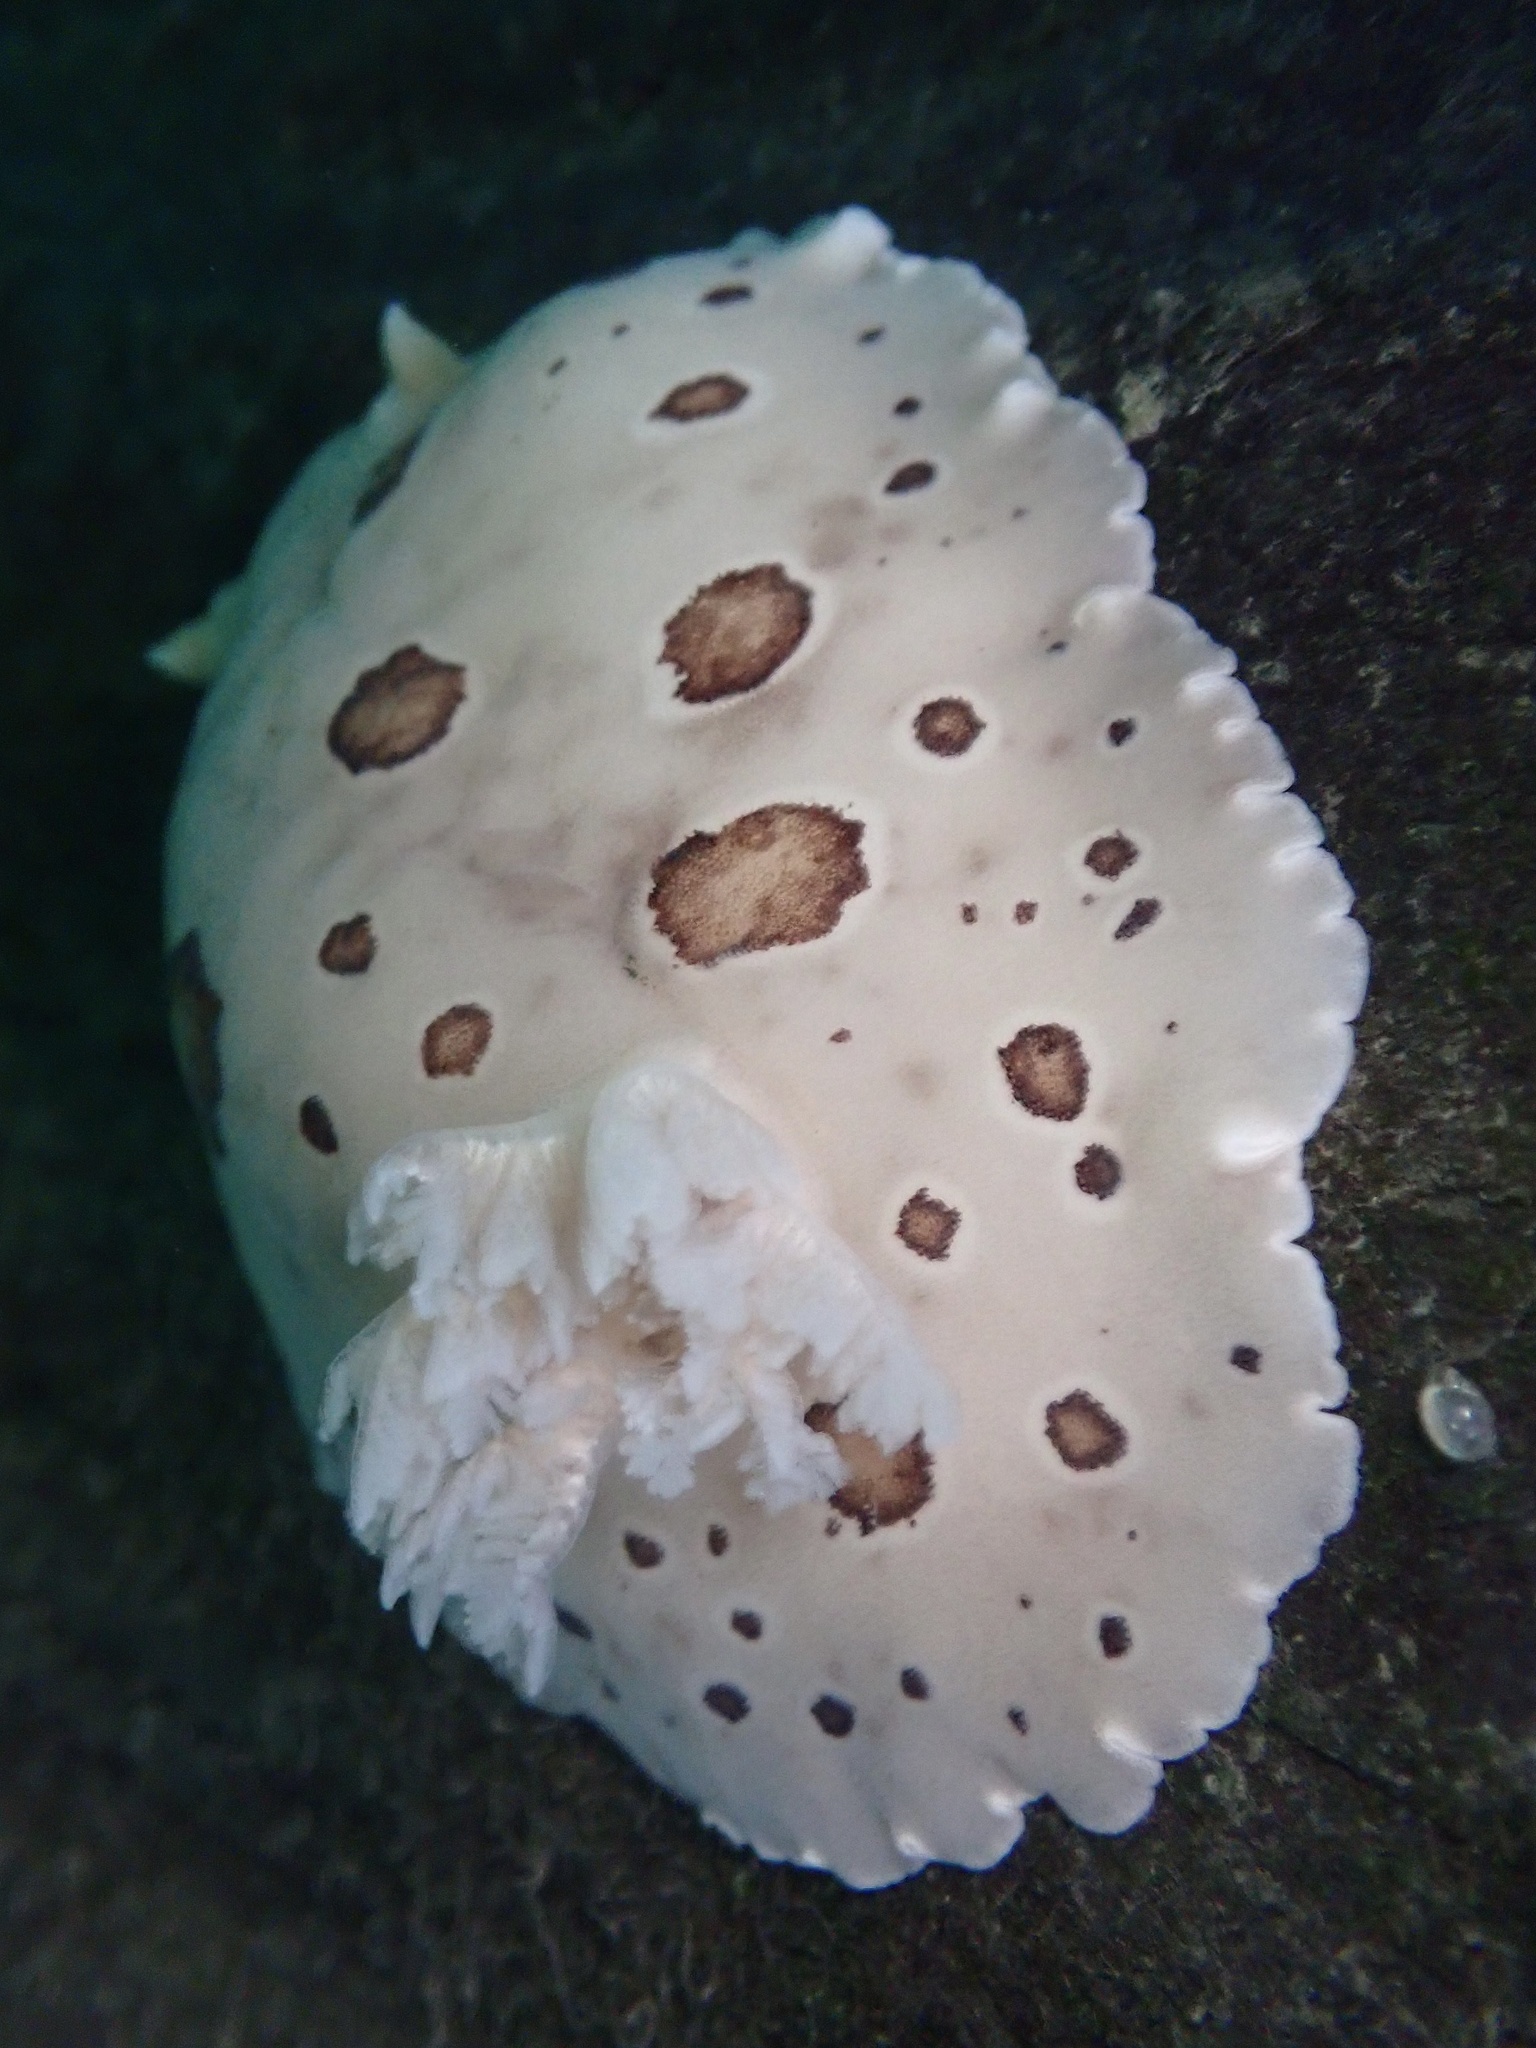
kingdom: Animalia
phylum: Mollusca
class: Gastropoda
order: Nudibranchia
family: Discodorididae
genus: Diaulula
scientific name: Diaulula odonoghuei
